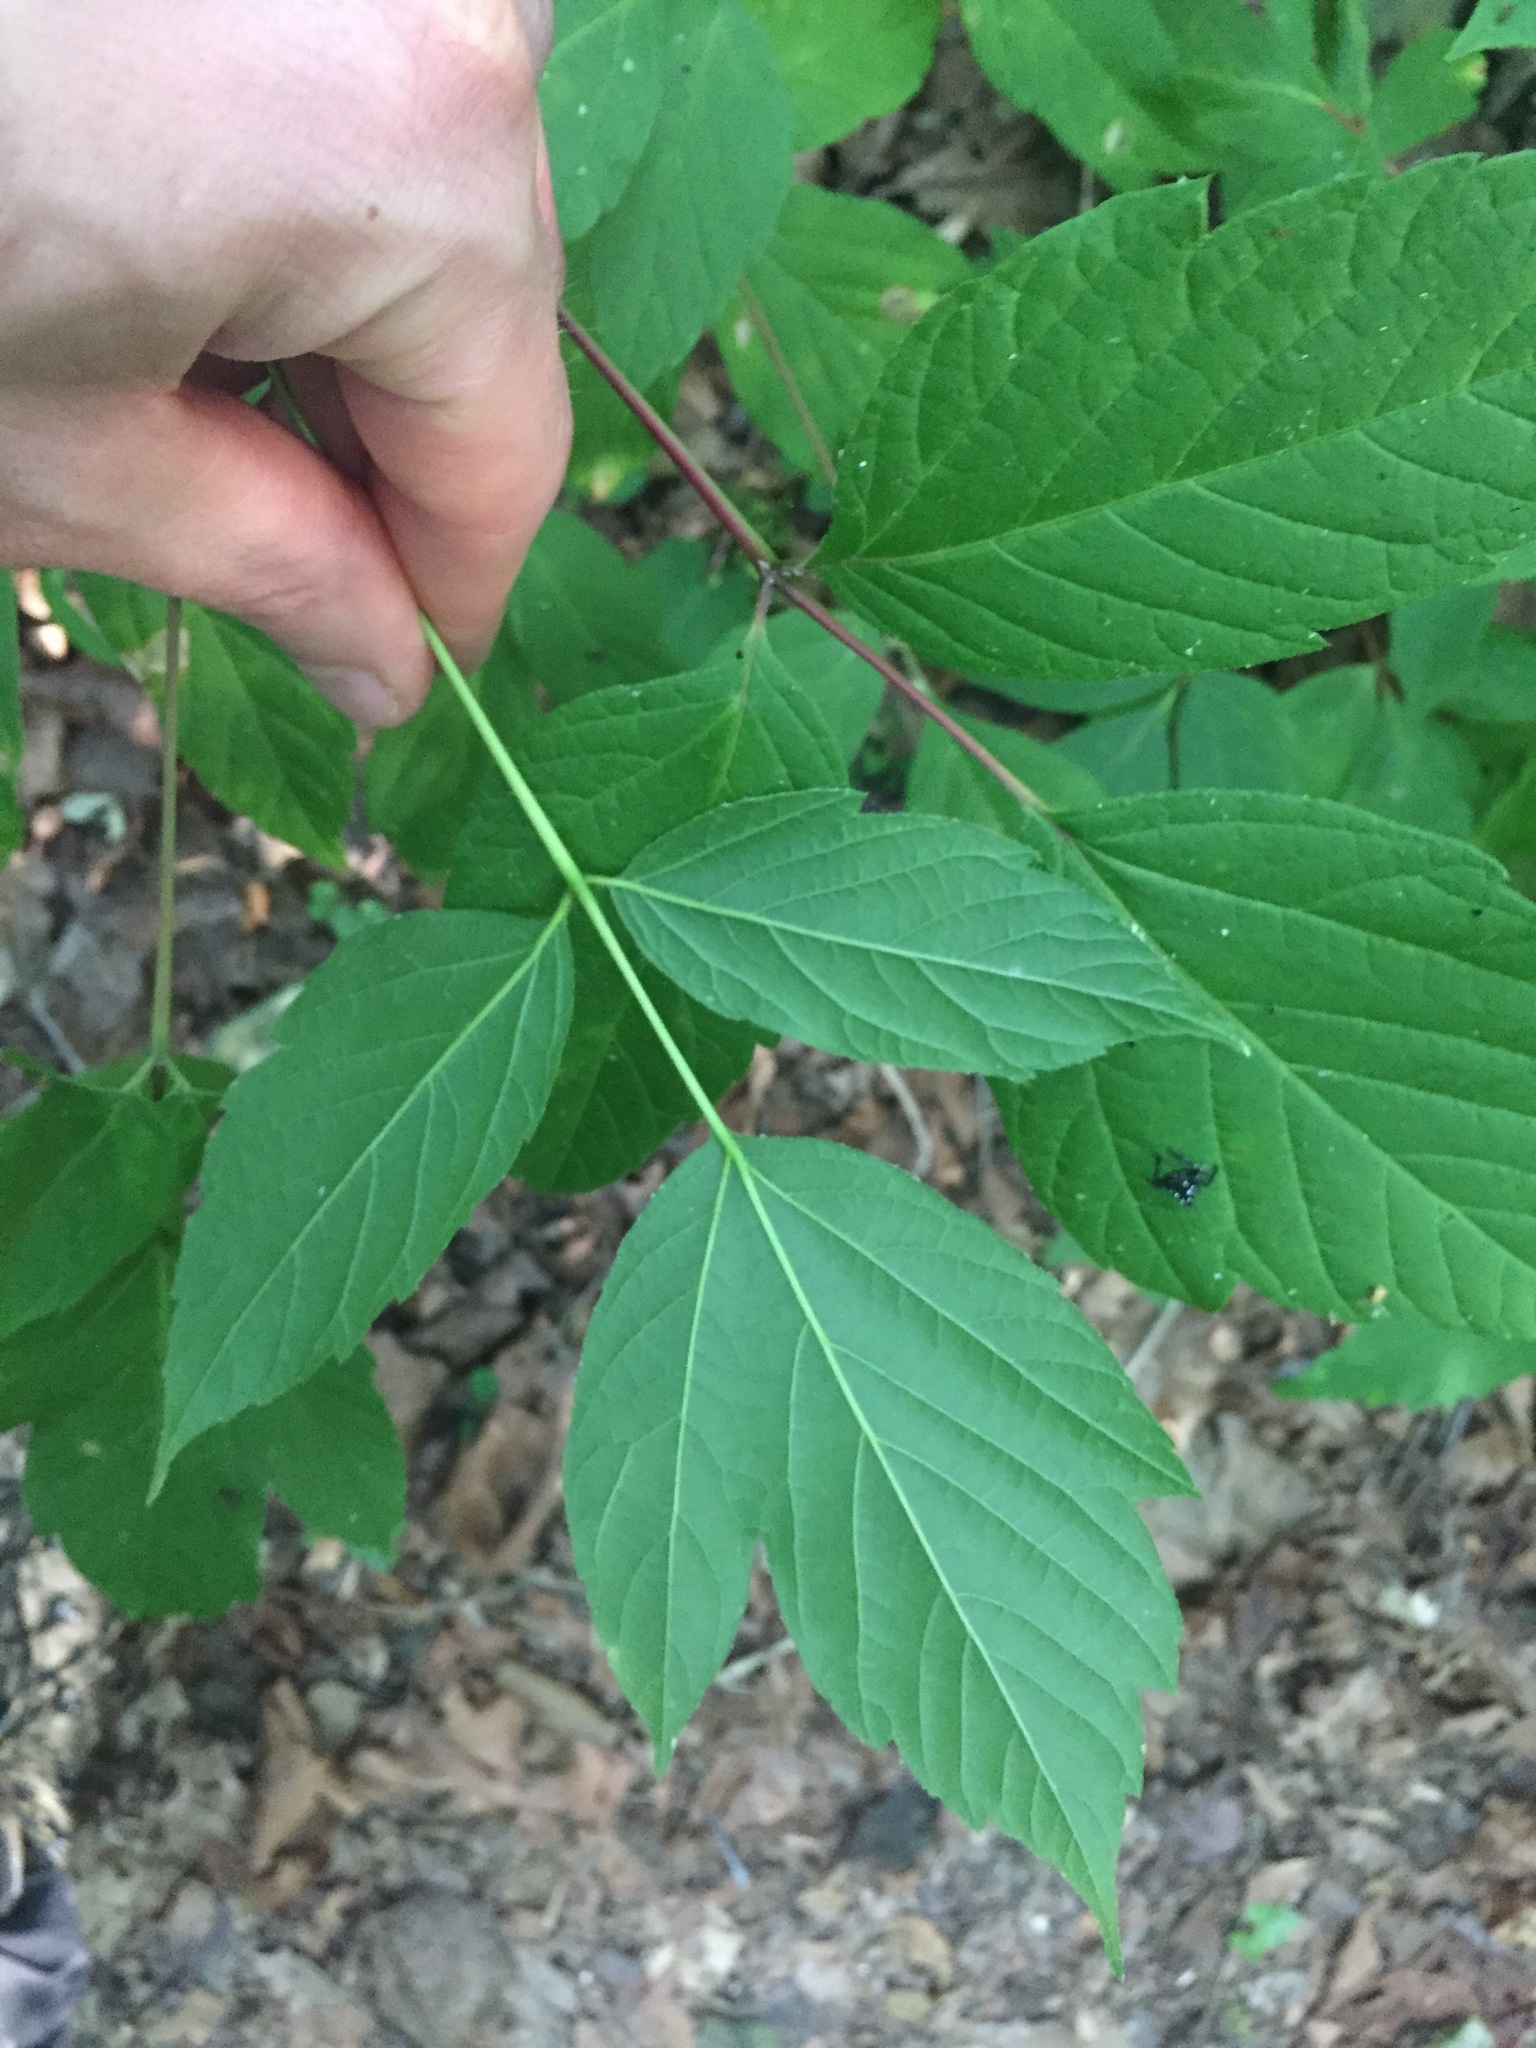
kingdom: Plantae
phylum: Tracheophyta
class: Magnoliopsida
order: Sapindales
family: Sapindaceae
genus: Acer
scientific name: Acer negundo
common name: Ashleaf maple
